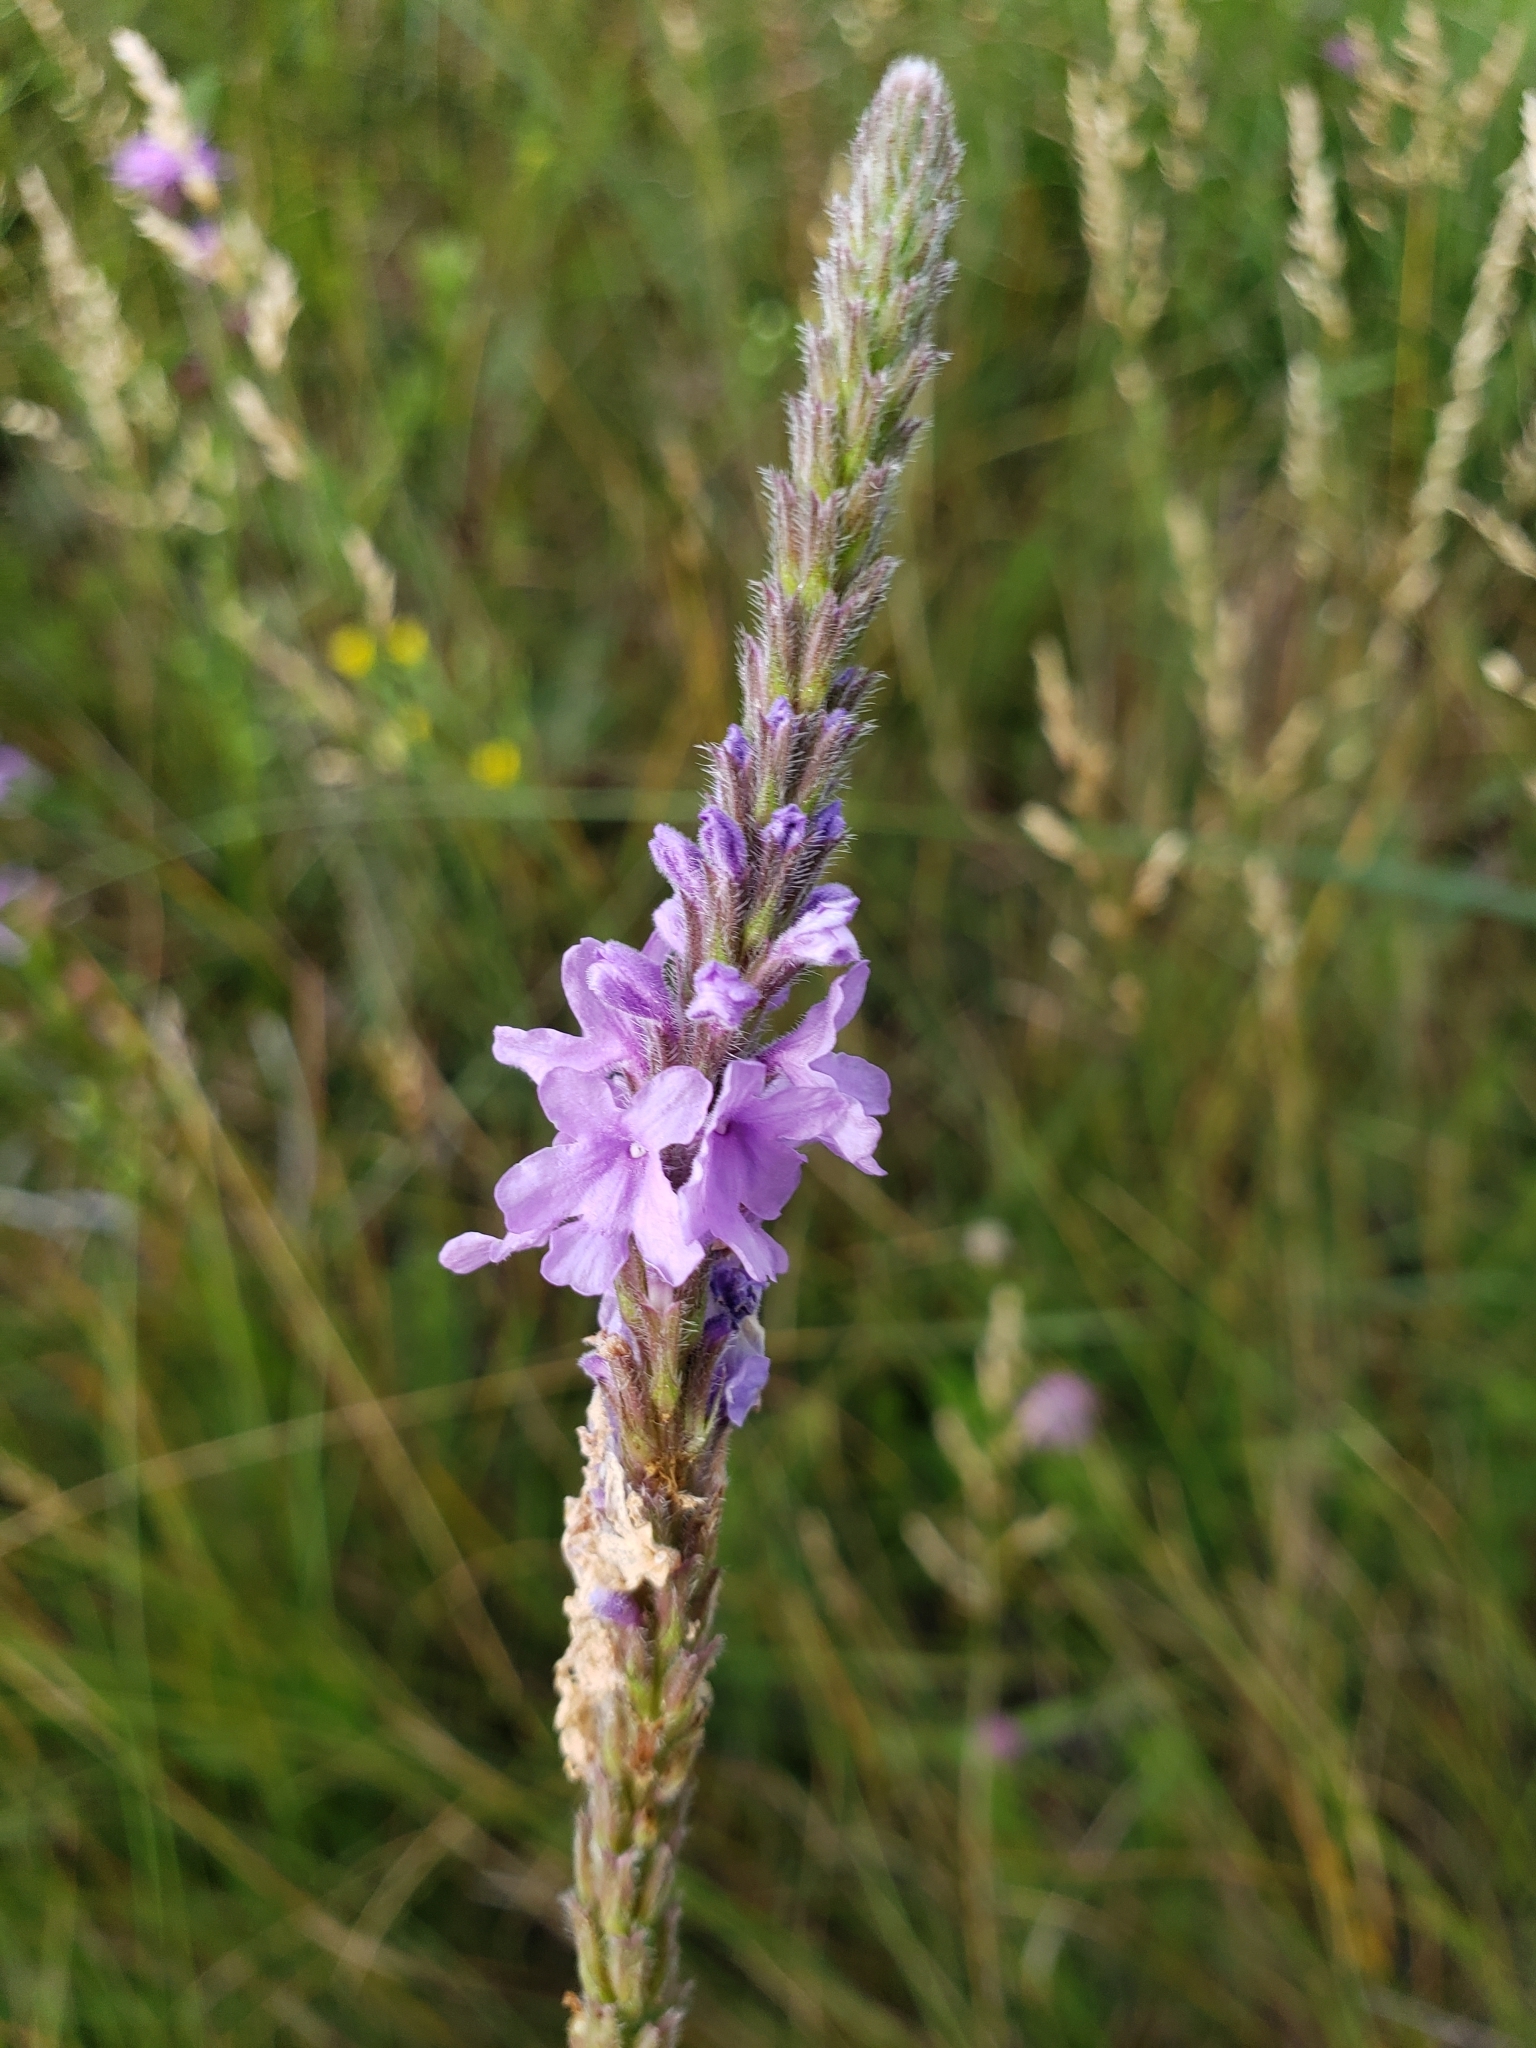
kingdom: Plantae
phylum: Tracheophyta
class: Magnoliopsida
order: Lamiales
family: Verbenaceae
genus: Verbena
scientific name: Verbena stricta
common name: Hoary vervain
